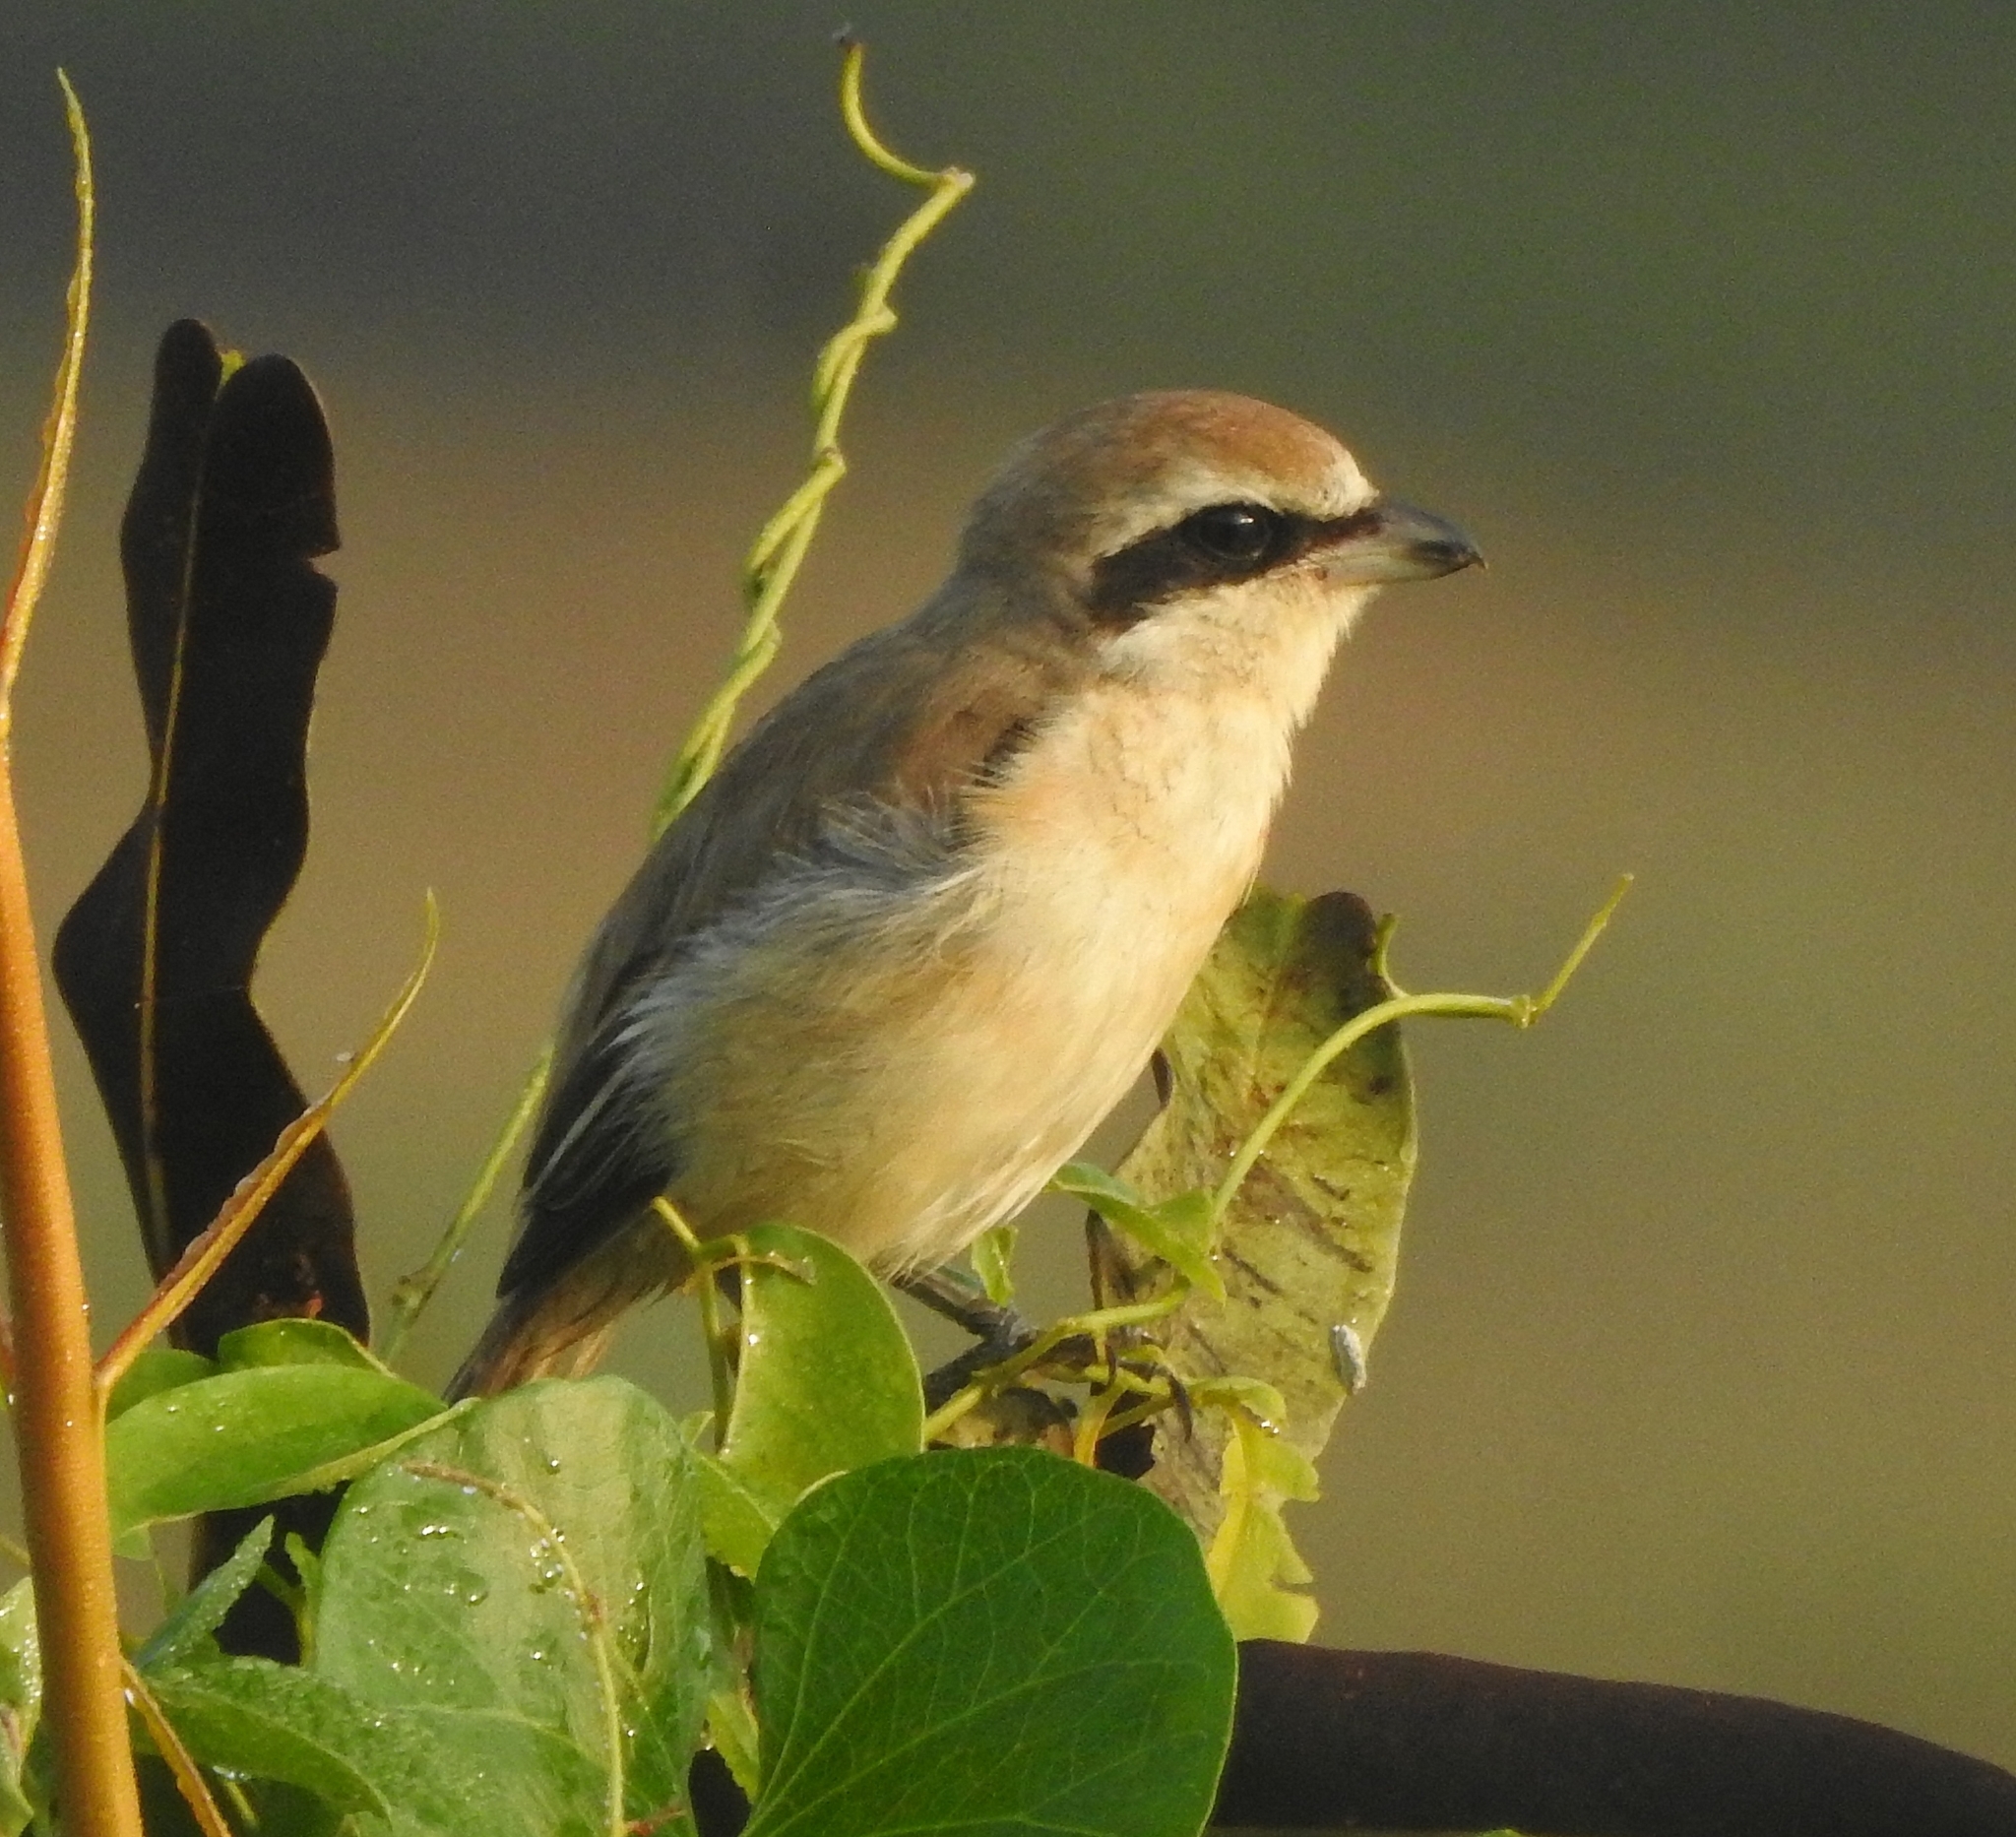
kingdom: Animalia
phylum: Chordata
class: Aves
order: Passeriformes
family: Laniidae
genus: Lanius
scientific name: Lanius cristatus
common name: Brown shrike
